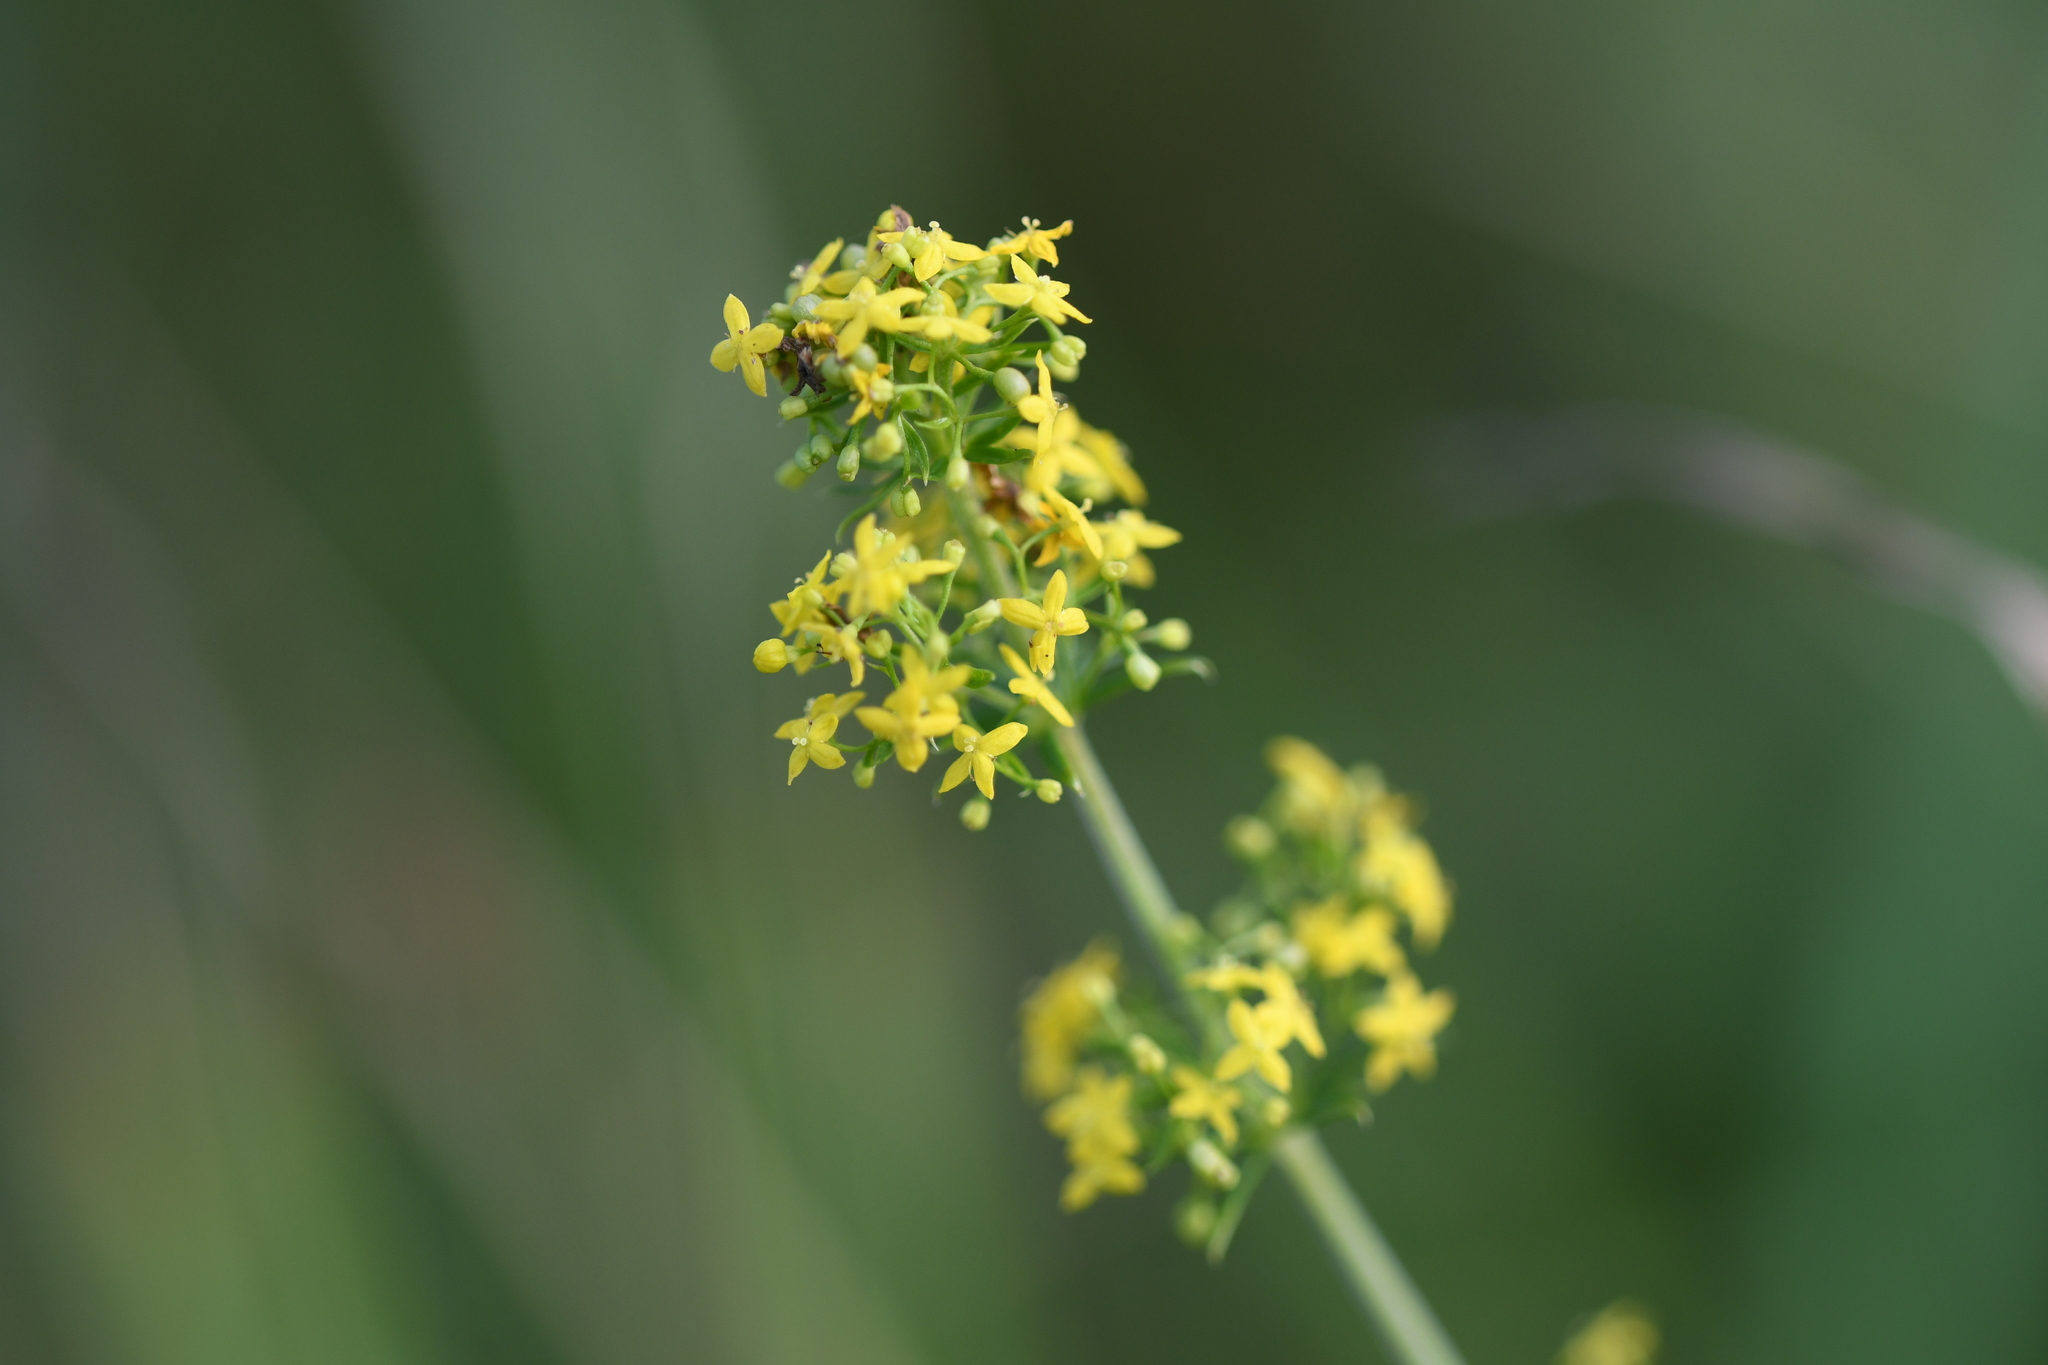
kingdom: Plantae
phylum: Tracheophyta
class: Magnoliopsida
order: Gentianales
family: Rubiaceae
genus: Galium
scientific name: Galium verum
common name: Lady's bedstraw
